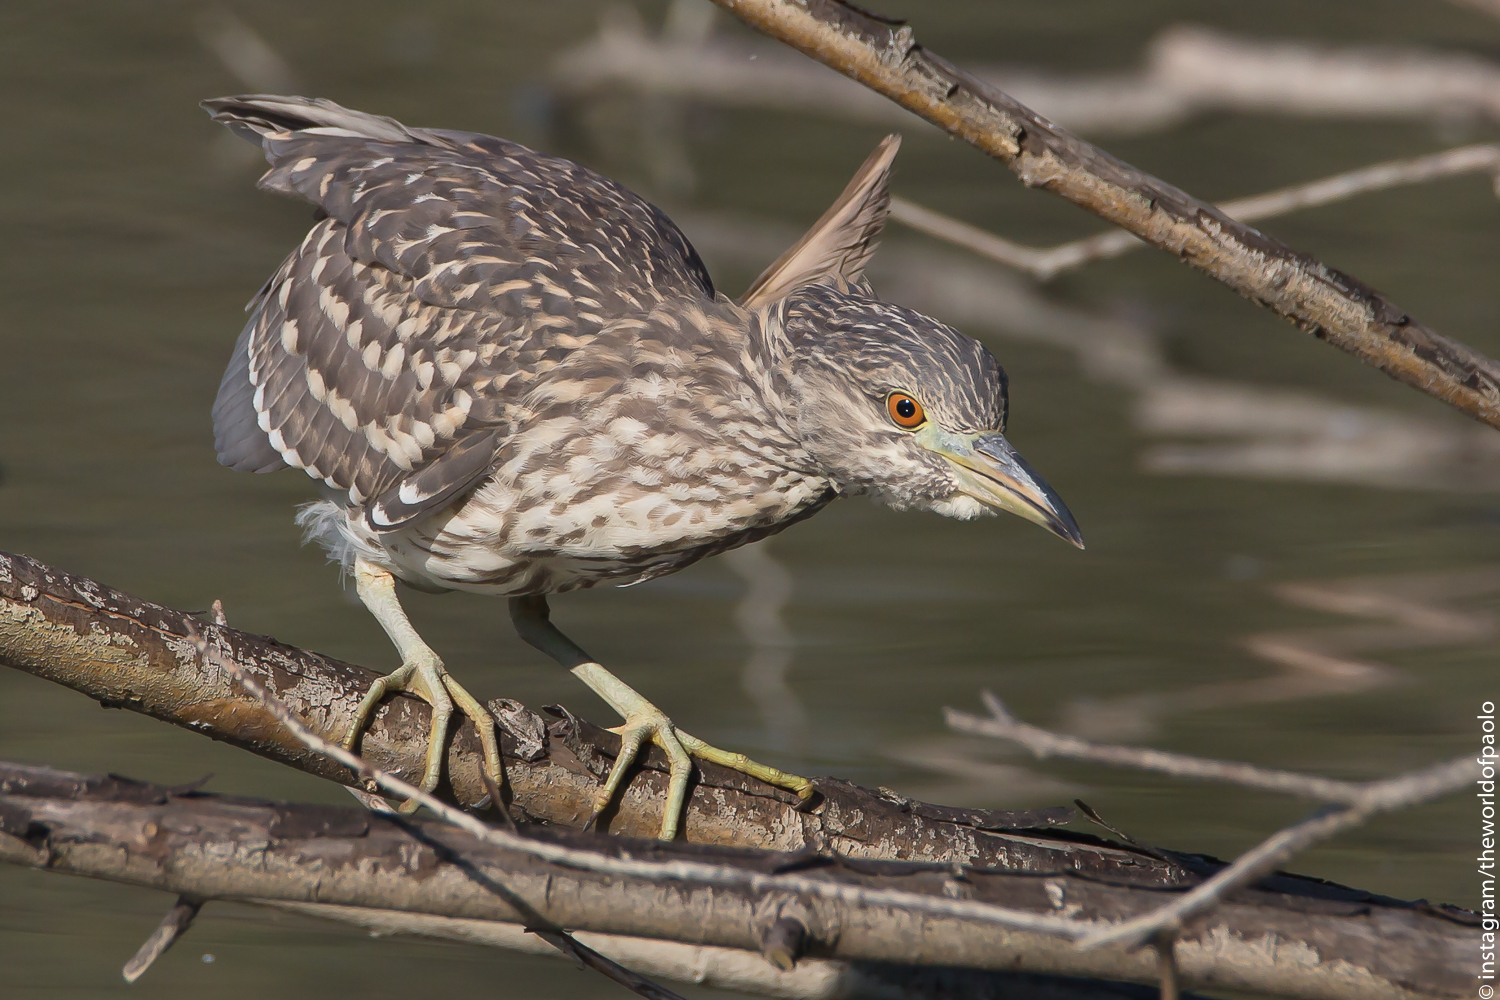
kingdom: Animalia
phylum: Chordata
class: Aves
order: Pelecaniformes
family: Ardeidae
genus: Nycticorax
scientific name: Nycticorax nycticorax
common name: Black-crowned night heron
